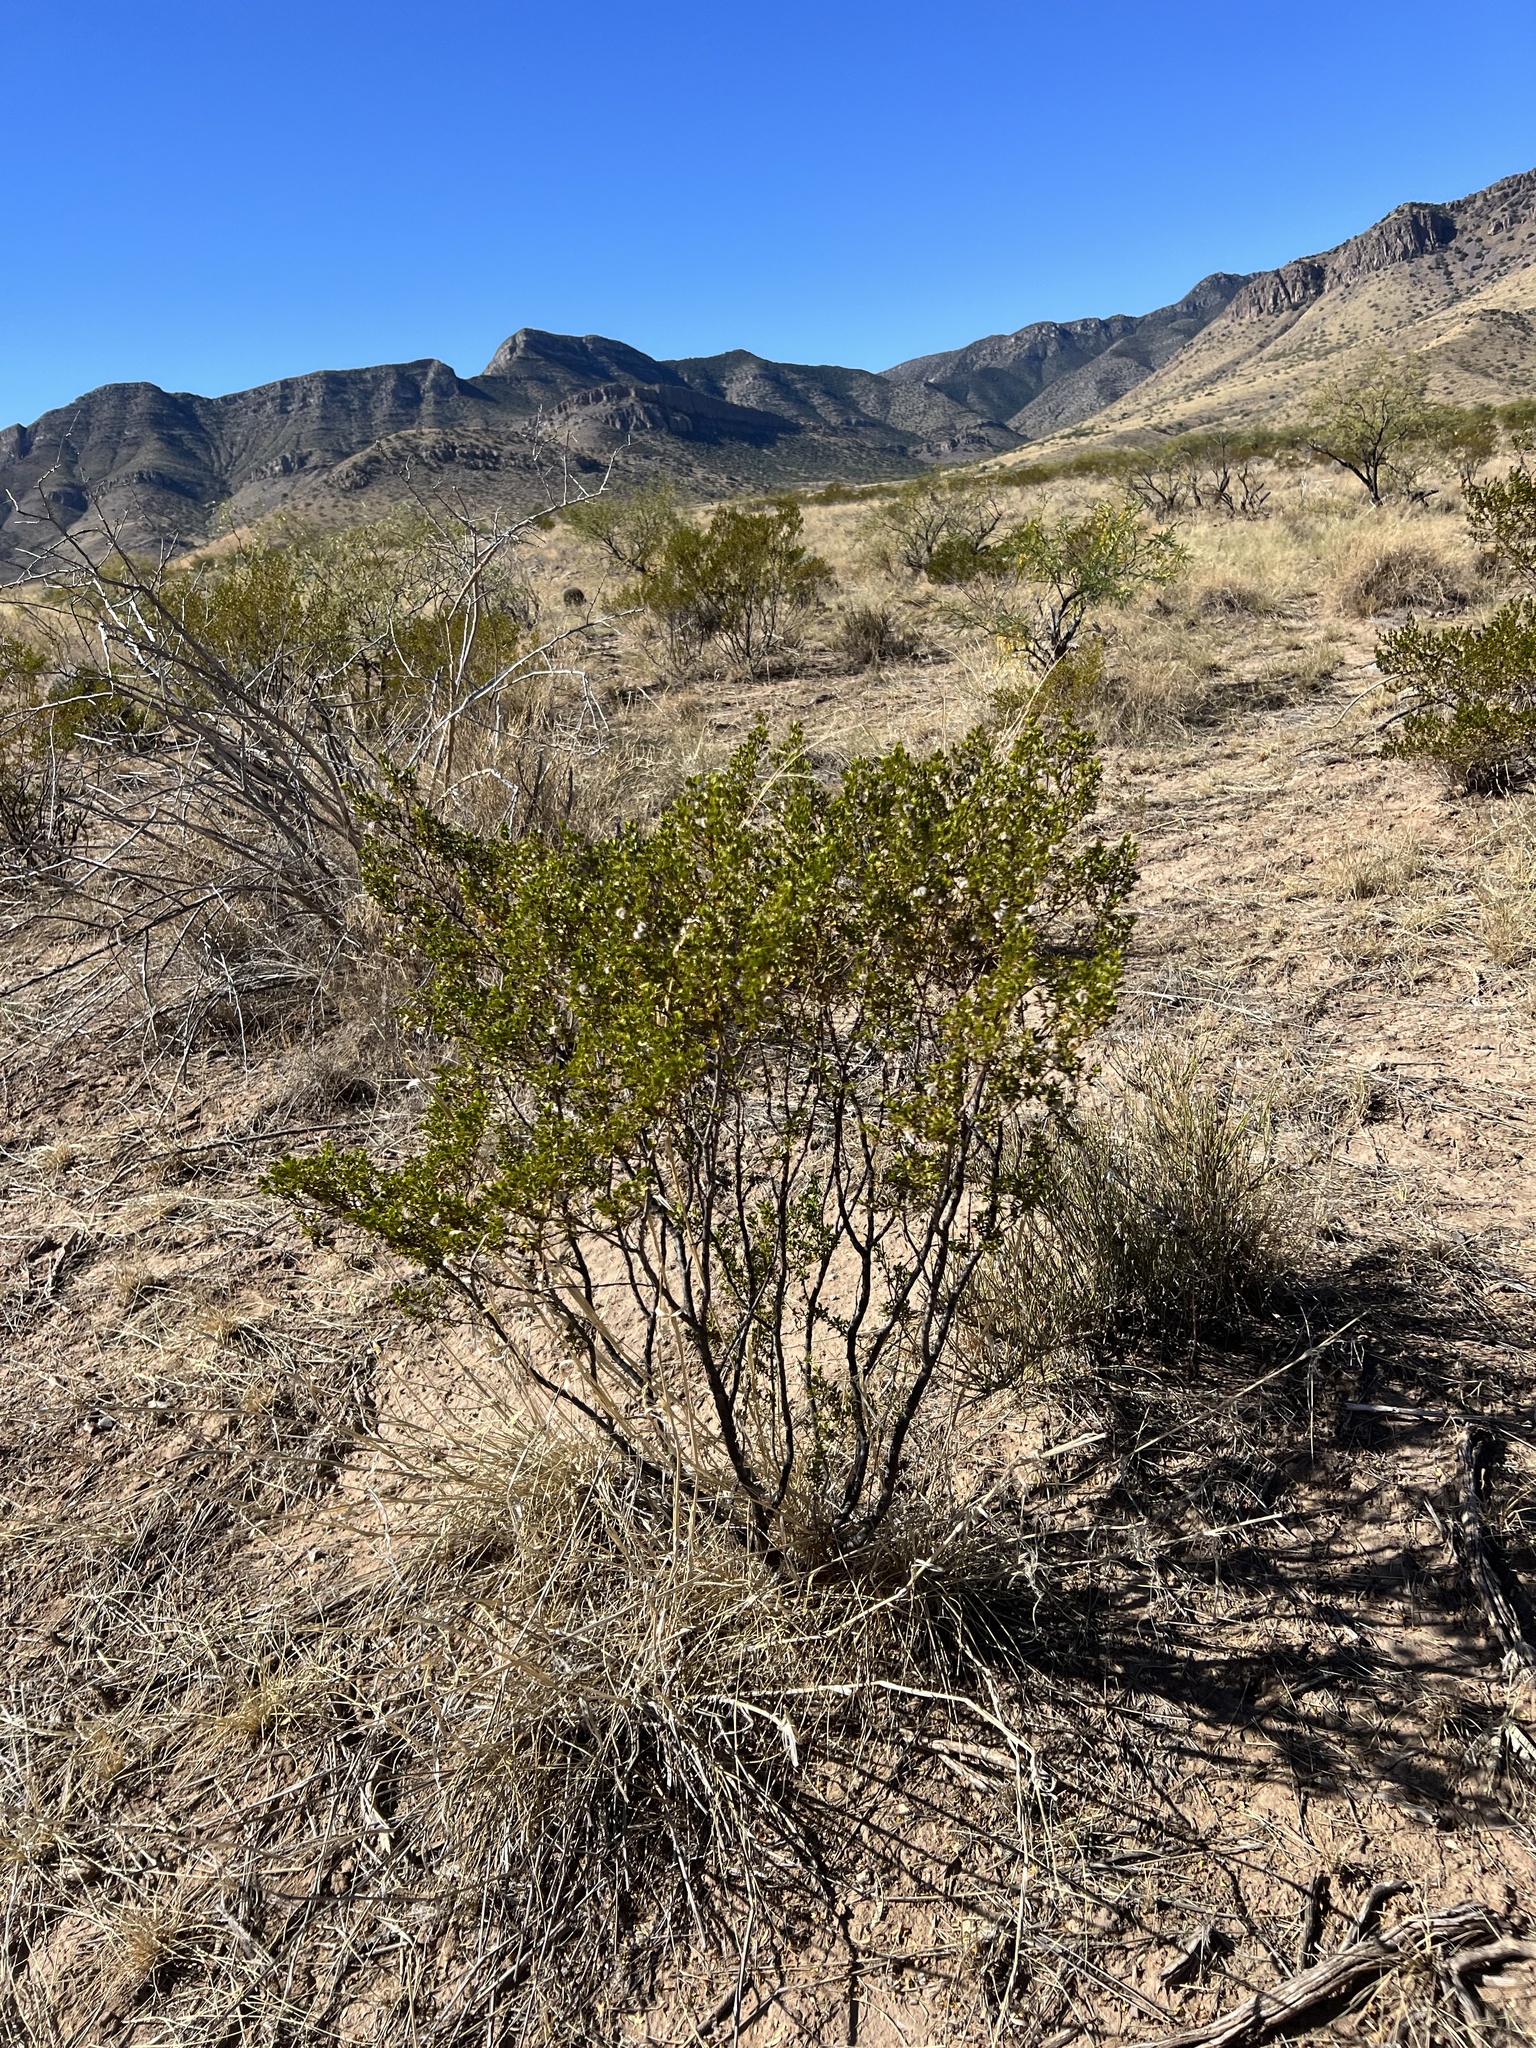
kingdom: Plantae
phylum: Tracheophyta
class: Magnoliopsida
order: Zygophyllales
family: Zygophyllaceae
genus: Larrea
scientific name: Larrea tridentata
